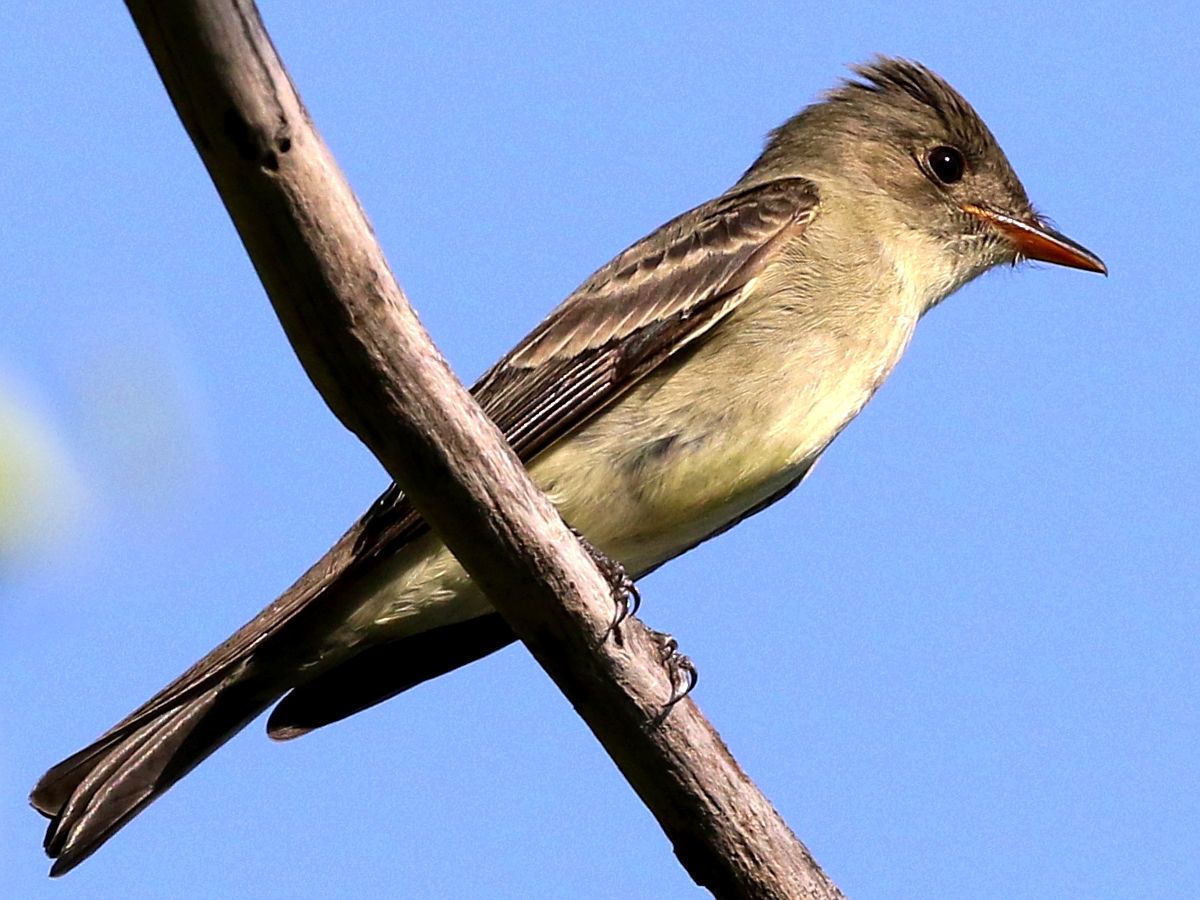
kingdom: Animalia
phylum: Chordata
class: Aves
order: Passeriformes
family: Tyrannidae
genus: Contopus
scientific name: Contopus virens
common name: Eastern wood-pewee
